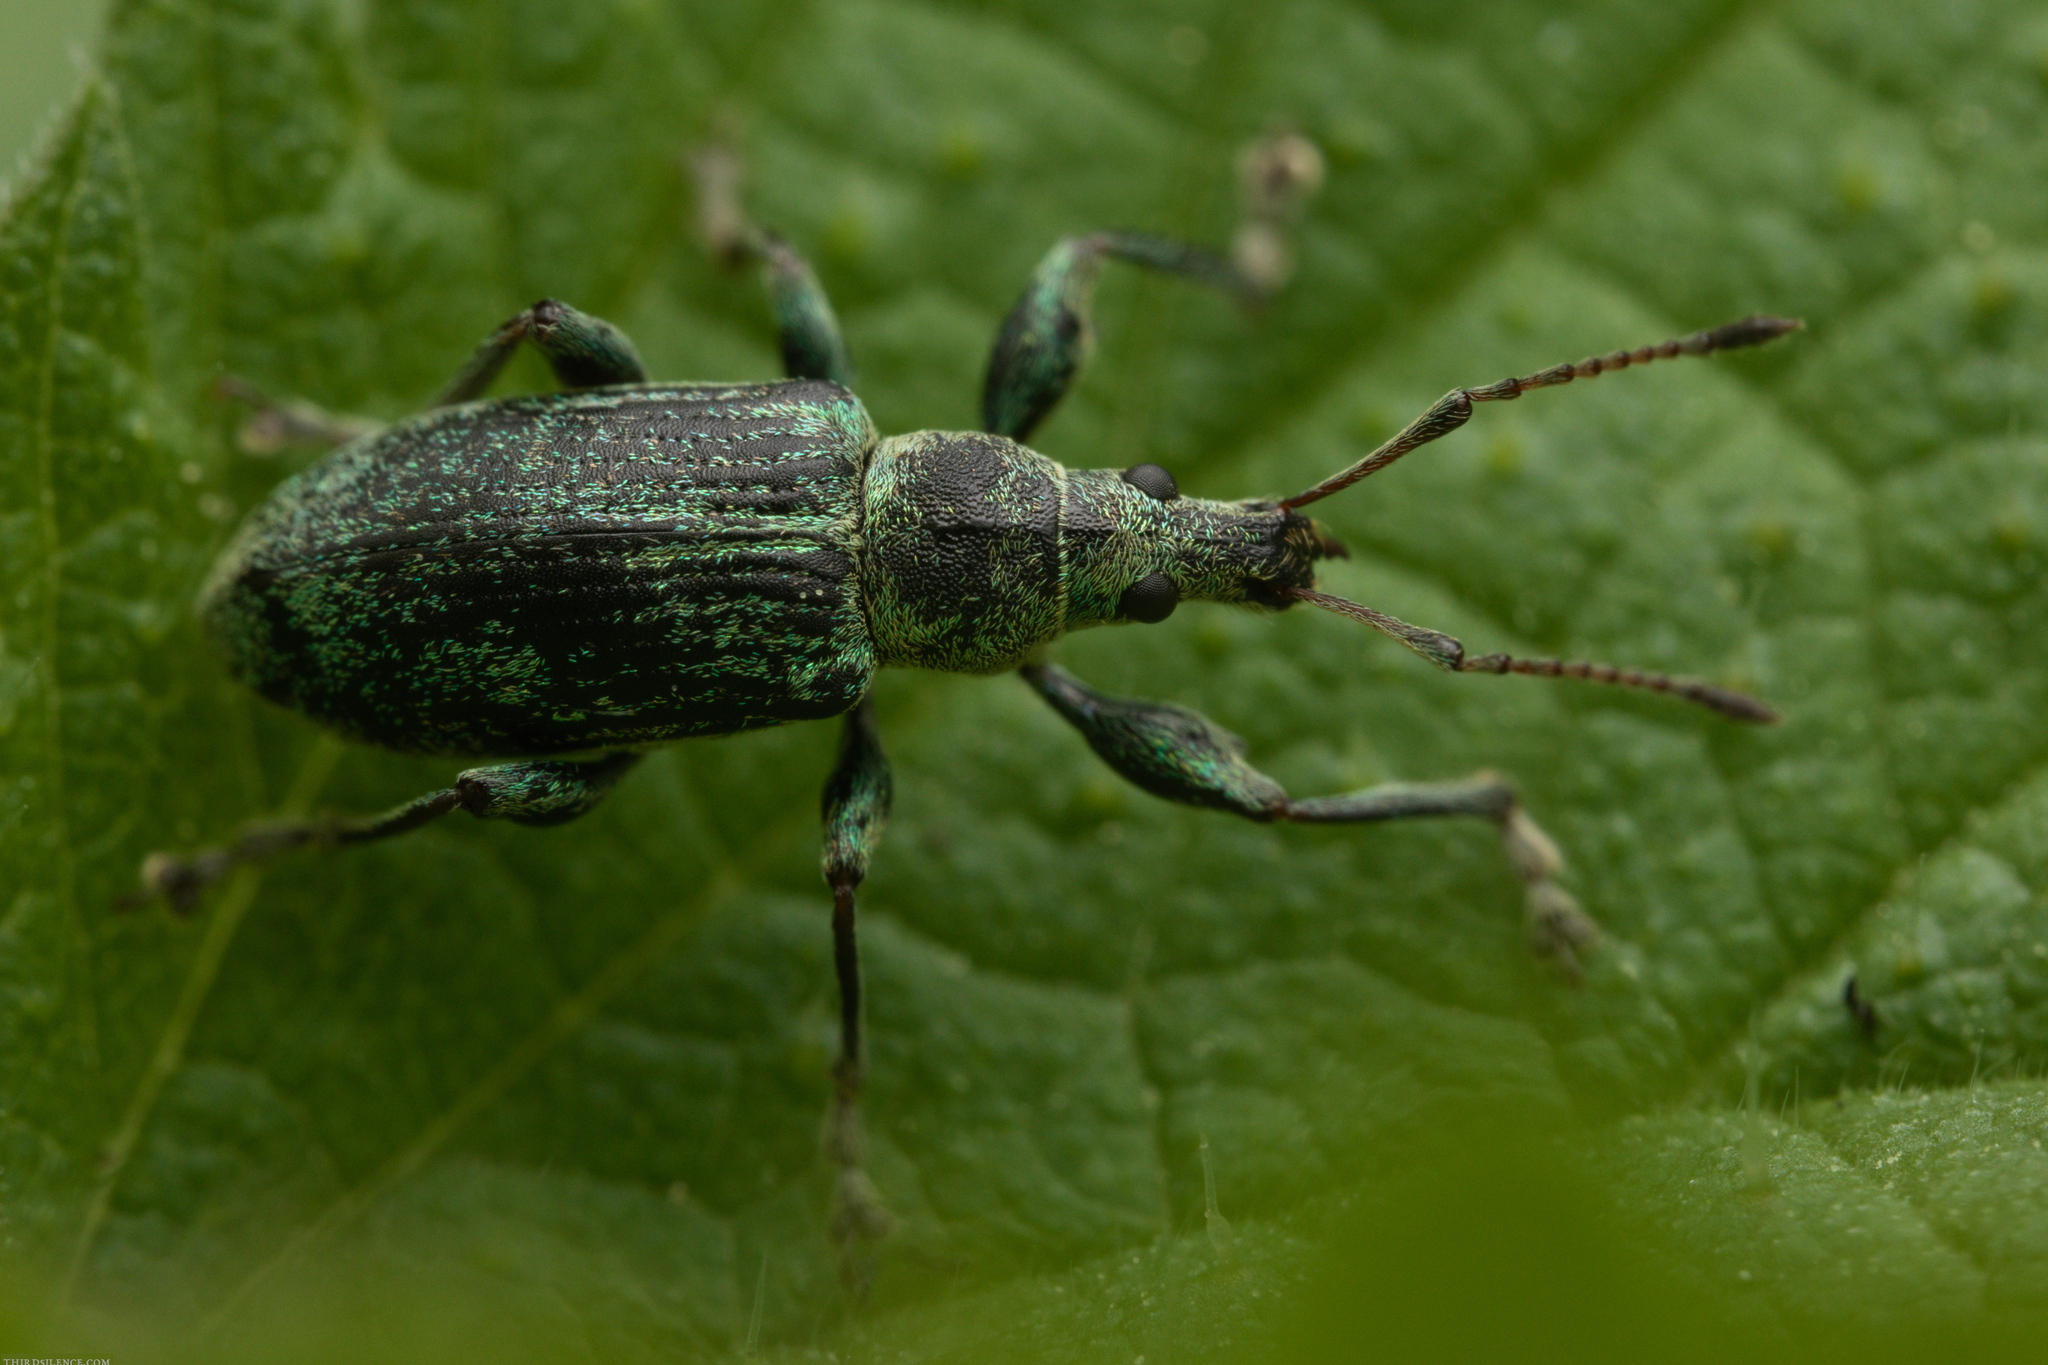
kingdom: Animalia
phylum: Arthropoda
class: Insecta
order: Coleoptera
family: Curculionidae
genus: Phyllobius
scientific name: Phyllobius pomaceus
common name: Green nettle weevil
